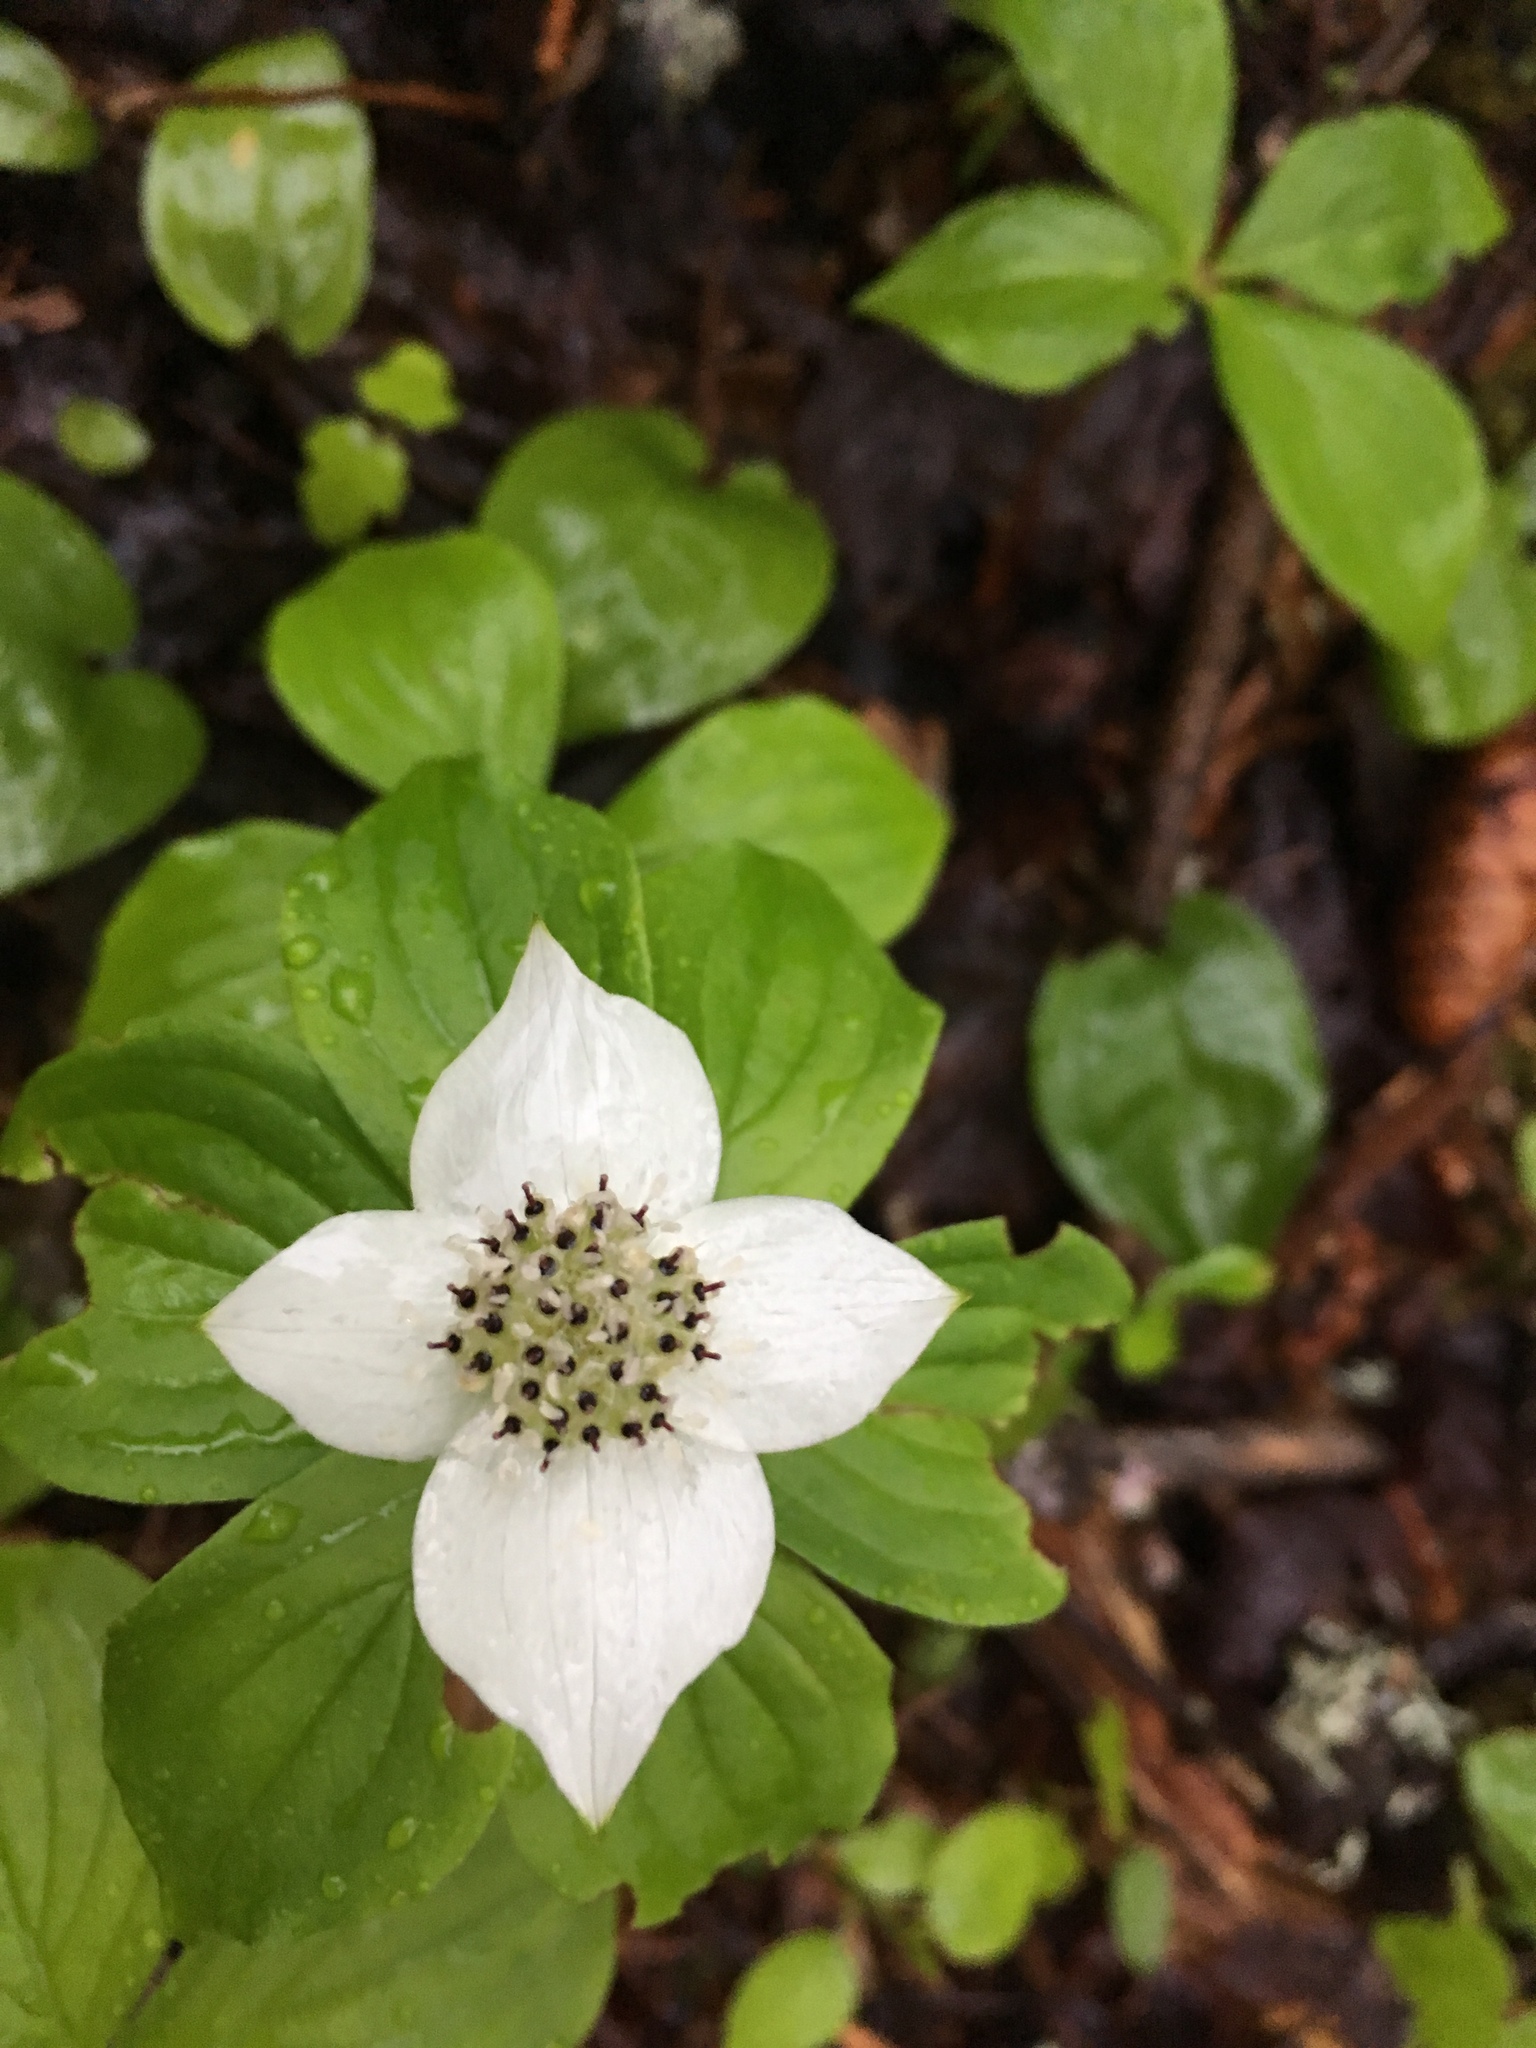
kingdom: Plantae
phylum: Tracheophyta
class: Magnoliopsida
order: Cornales
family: Cornaceae
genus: Cornus
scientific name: Cornus canadensis
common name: Creeping dogwood
